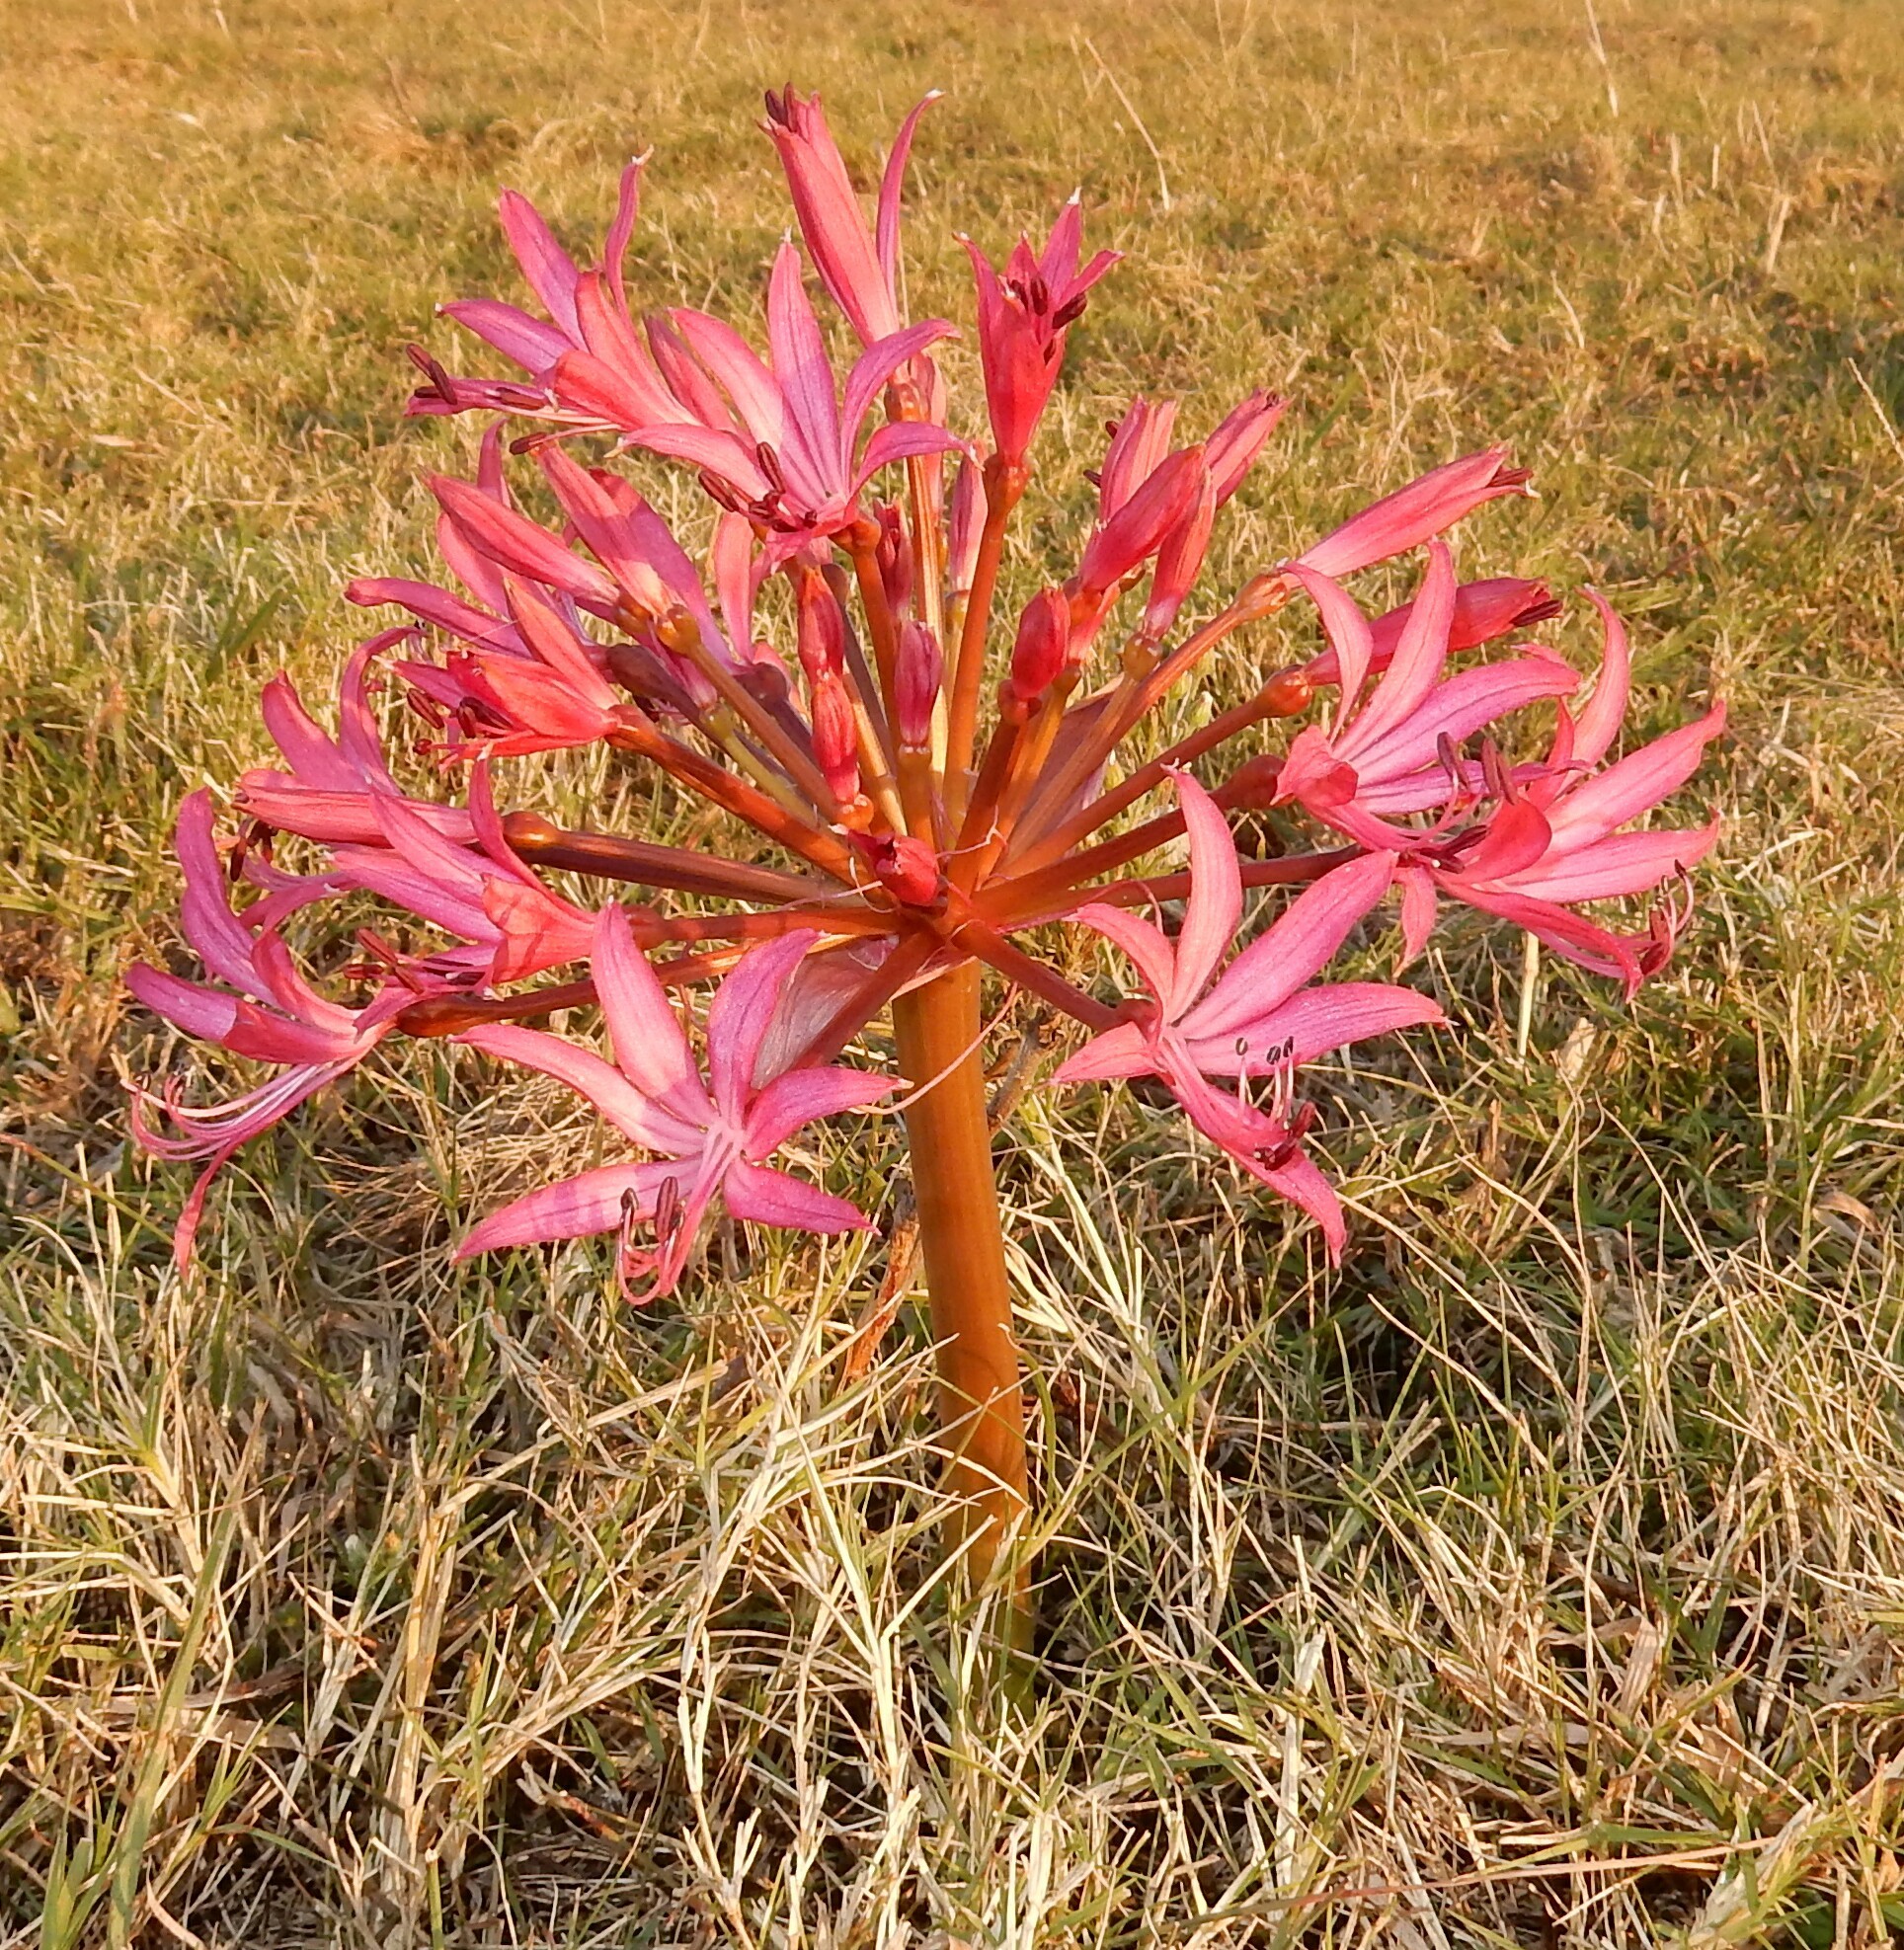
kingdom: Plantae
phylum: Tracheophyta
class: Liliopsida
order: Asparagales
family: Amaryllidaceae
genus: Brunsvigia
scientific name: Brunsvigia gregaria
